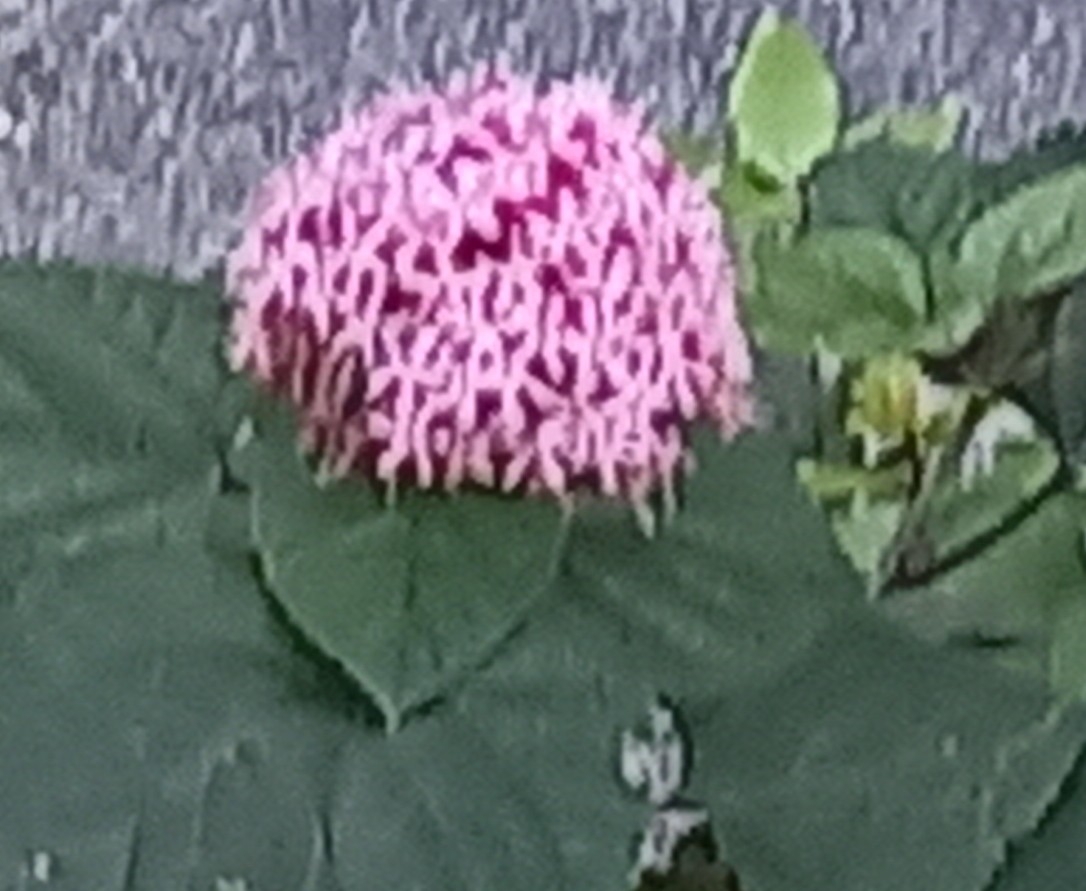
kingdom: Plantae
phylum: Tracheophyta
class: Magnoliopsida
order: Lamiales
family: Lamiaceae
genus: Clerodendrum
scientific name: Clerodendrum bungei
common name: Rose glorybower
